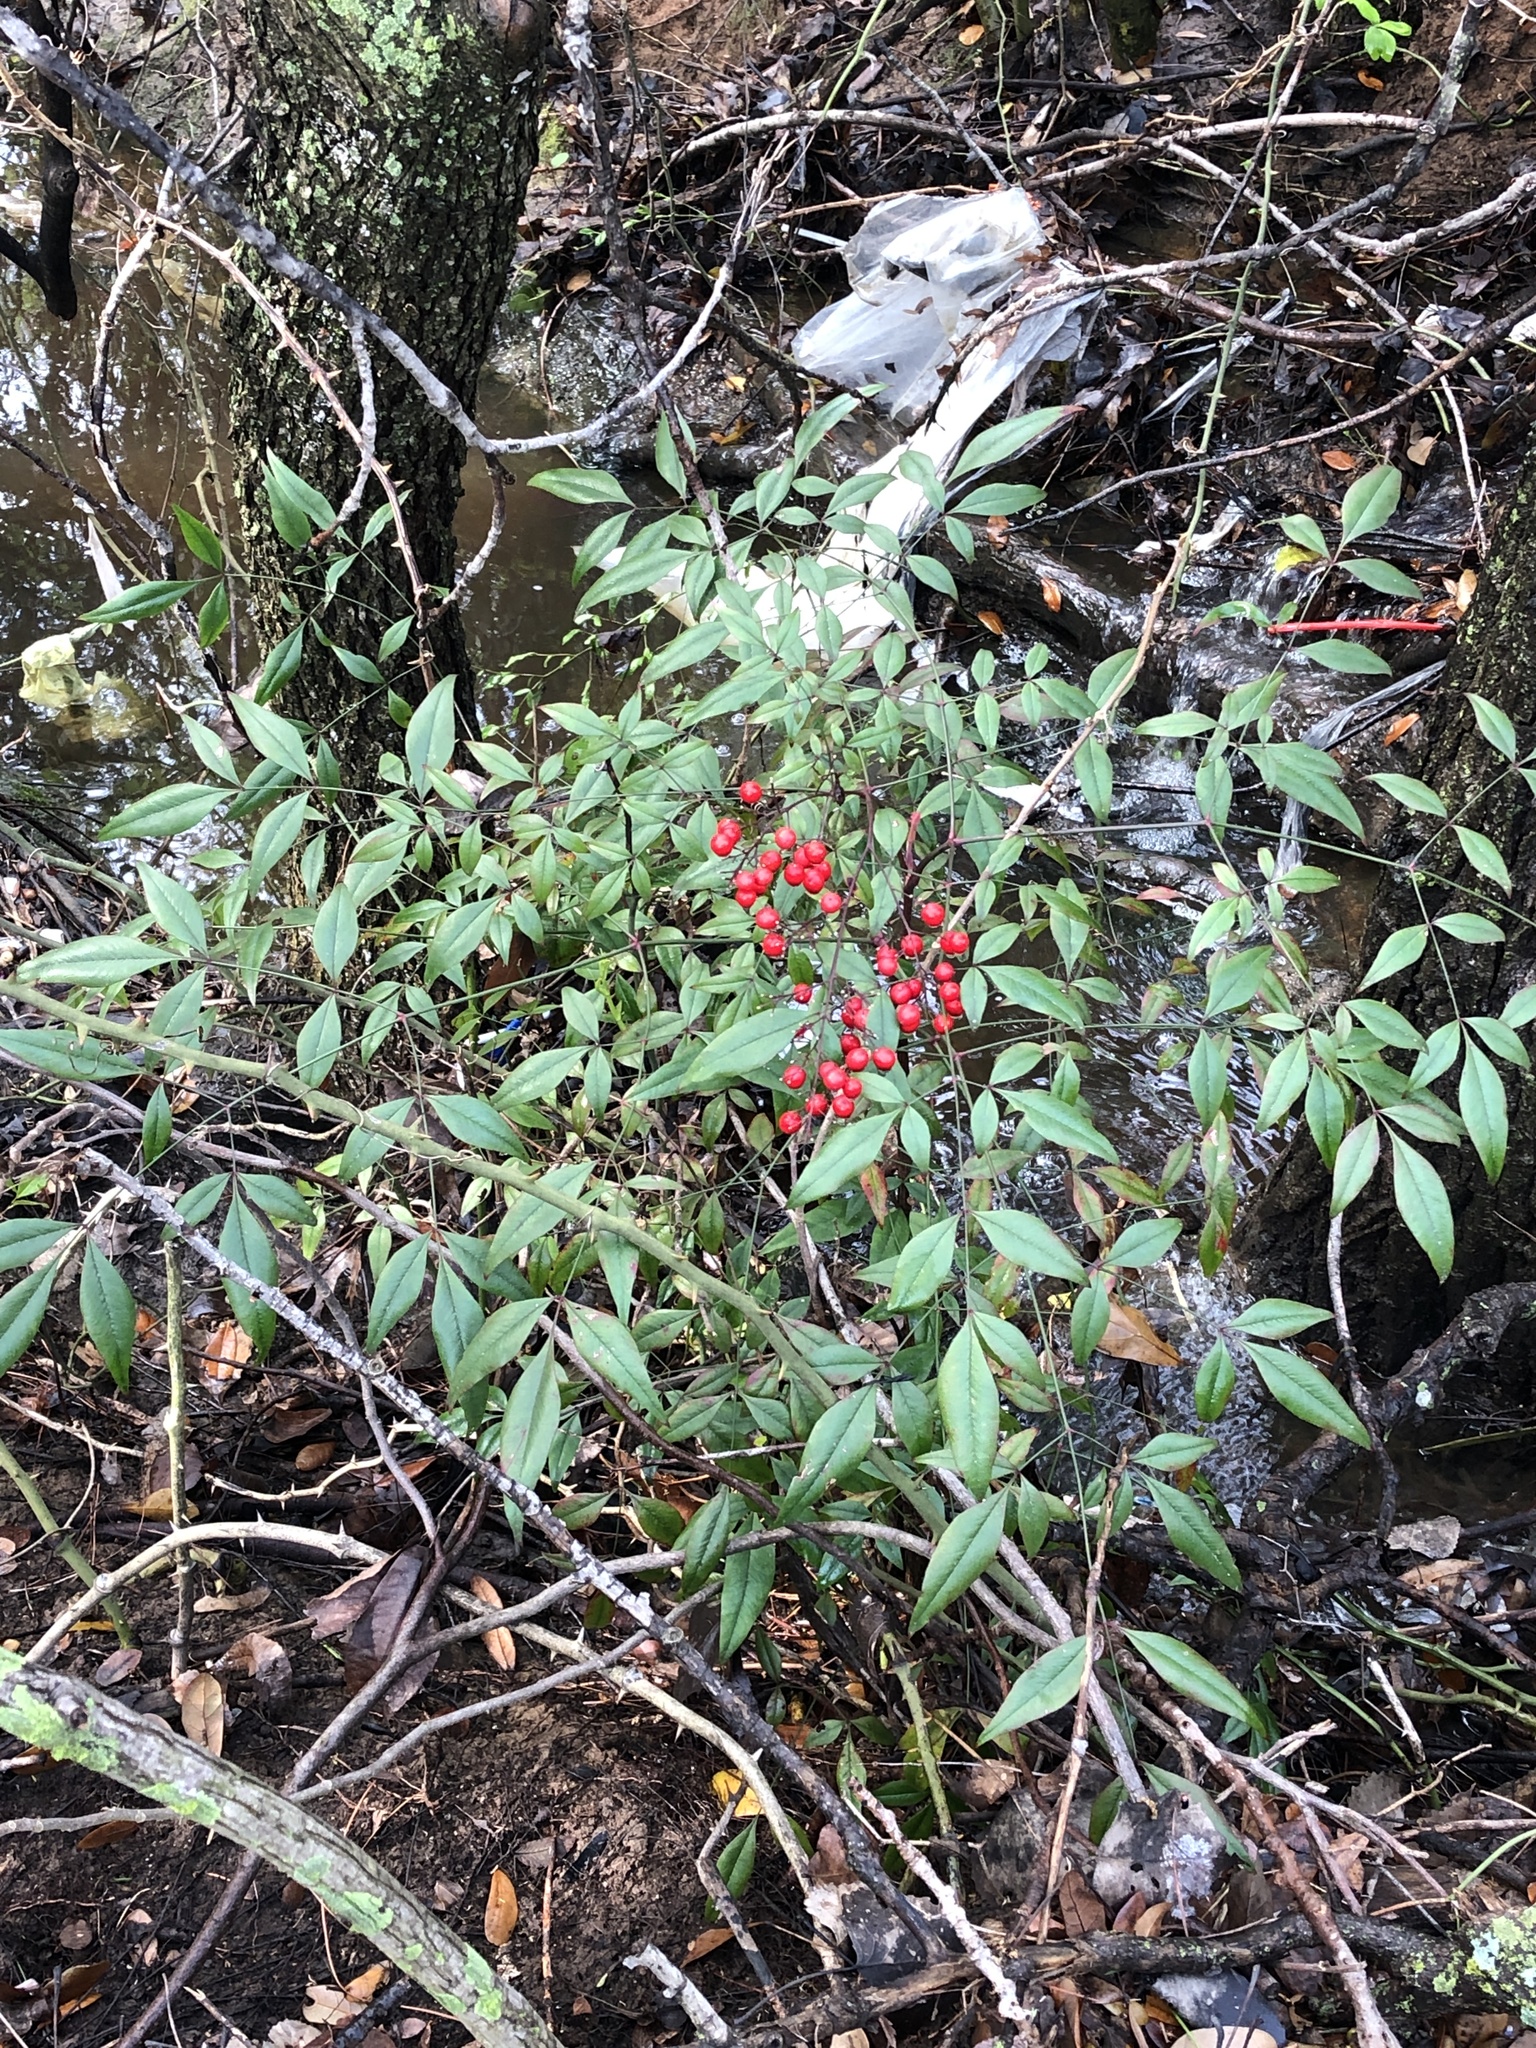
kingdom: Plantae
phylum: Tracheophyta
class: Magnoliopsida
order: Ranunculales
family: Berberidaceae
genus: Nandina
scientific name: Nandina domestica
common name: Sacred bamboo
